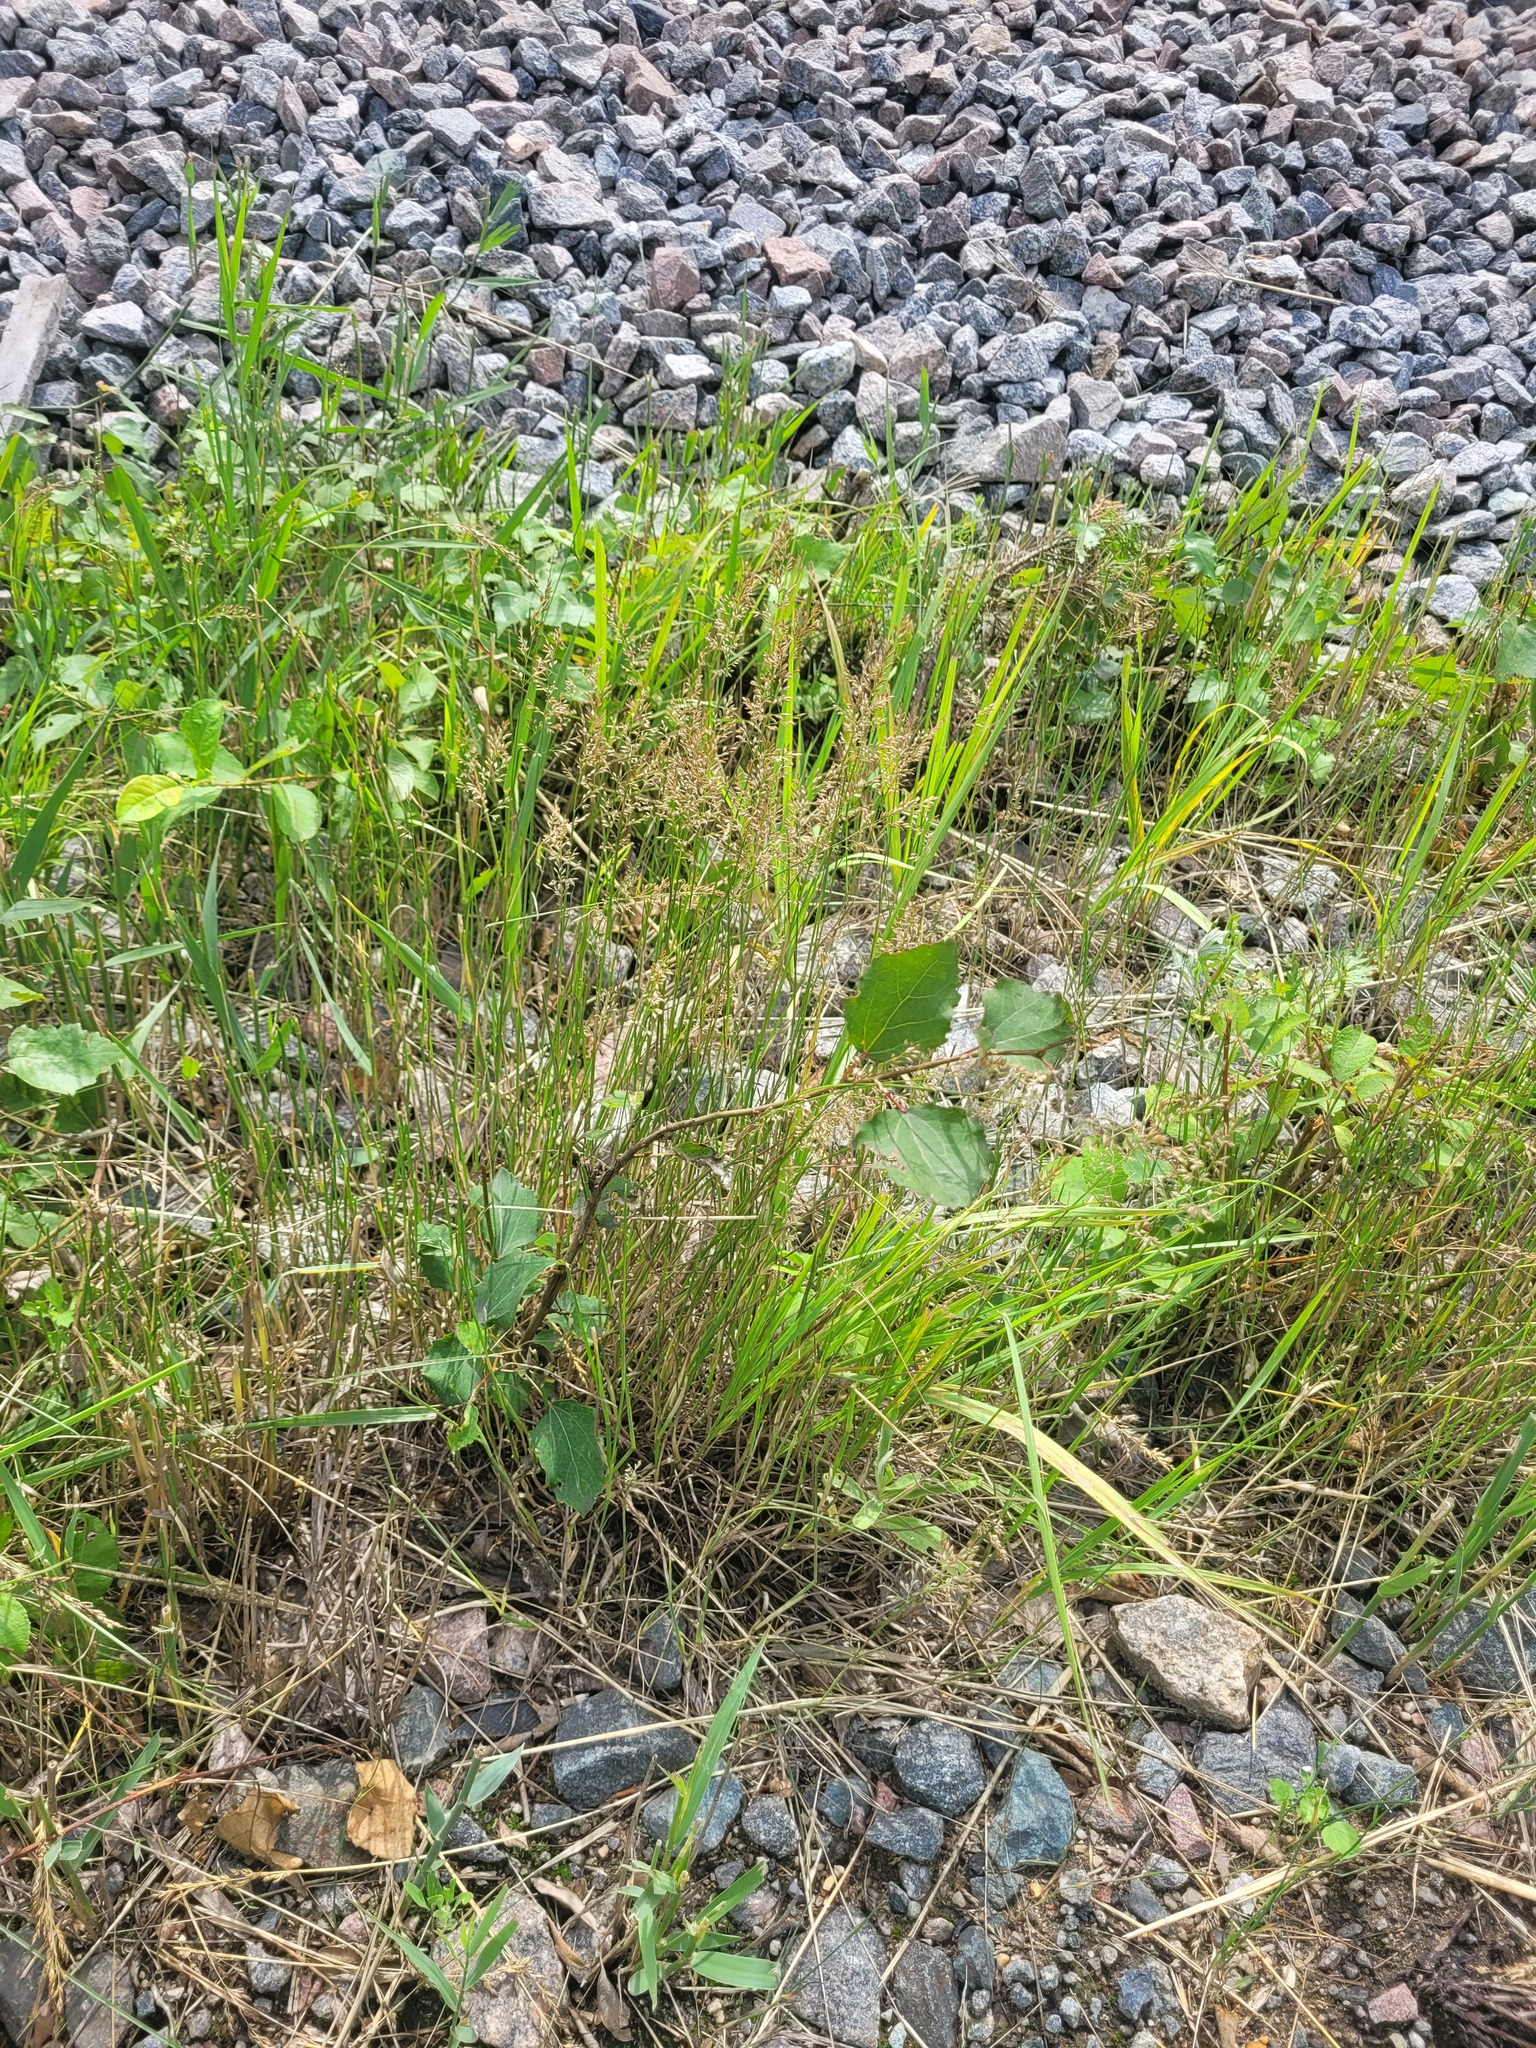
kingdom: Plantae
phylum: Tracheophyta
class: Magnoliopsida
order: Malpighiales
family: Salicaceae
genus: Populus
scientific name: Populus tremula
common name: European aspen
